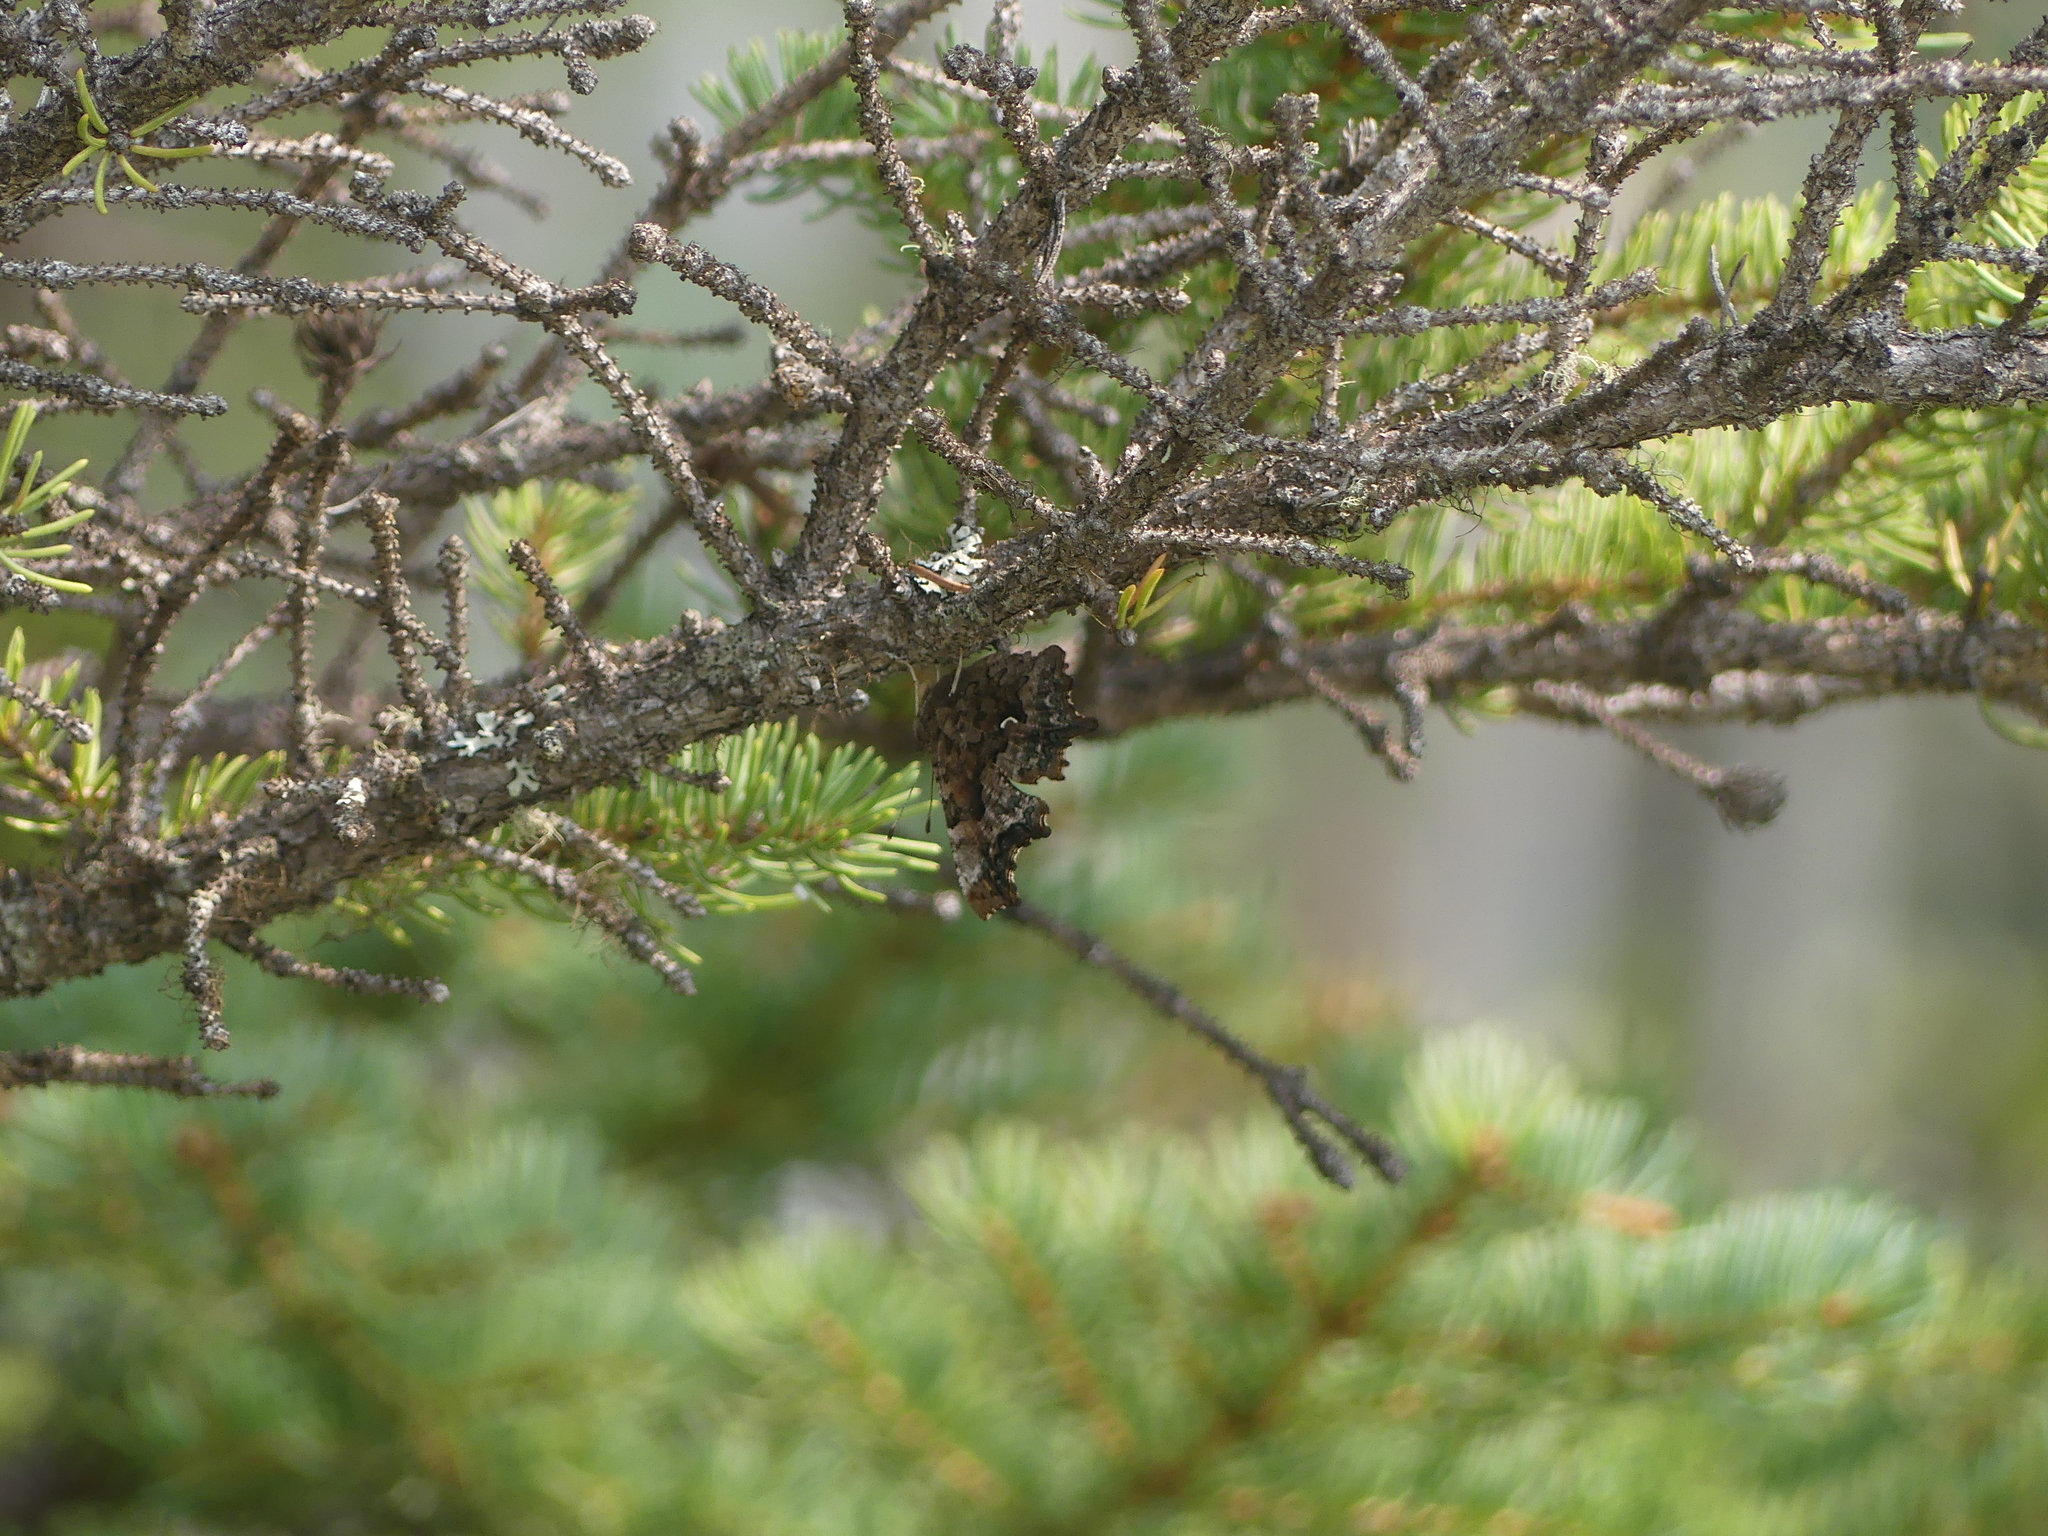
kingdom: Animalia
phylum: Arthropoda
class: Insecta
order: Lepidoptera
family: Nymphalidae
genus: Polygonia
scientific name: Polygonia faunus
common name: Green comma
